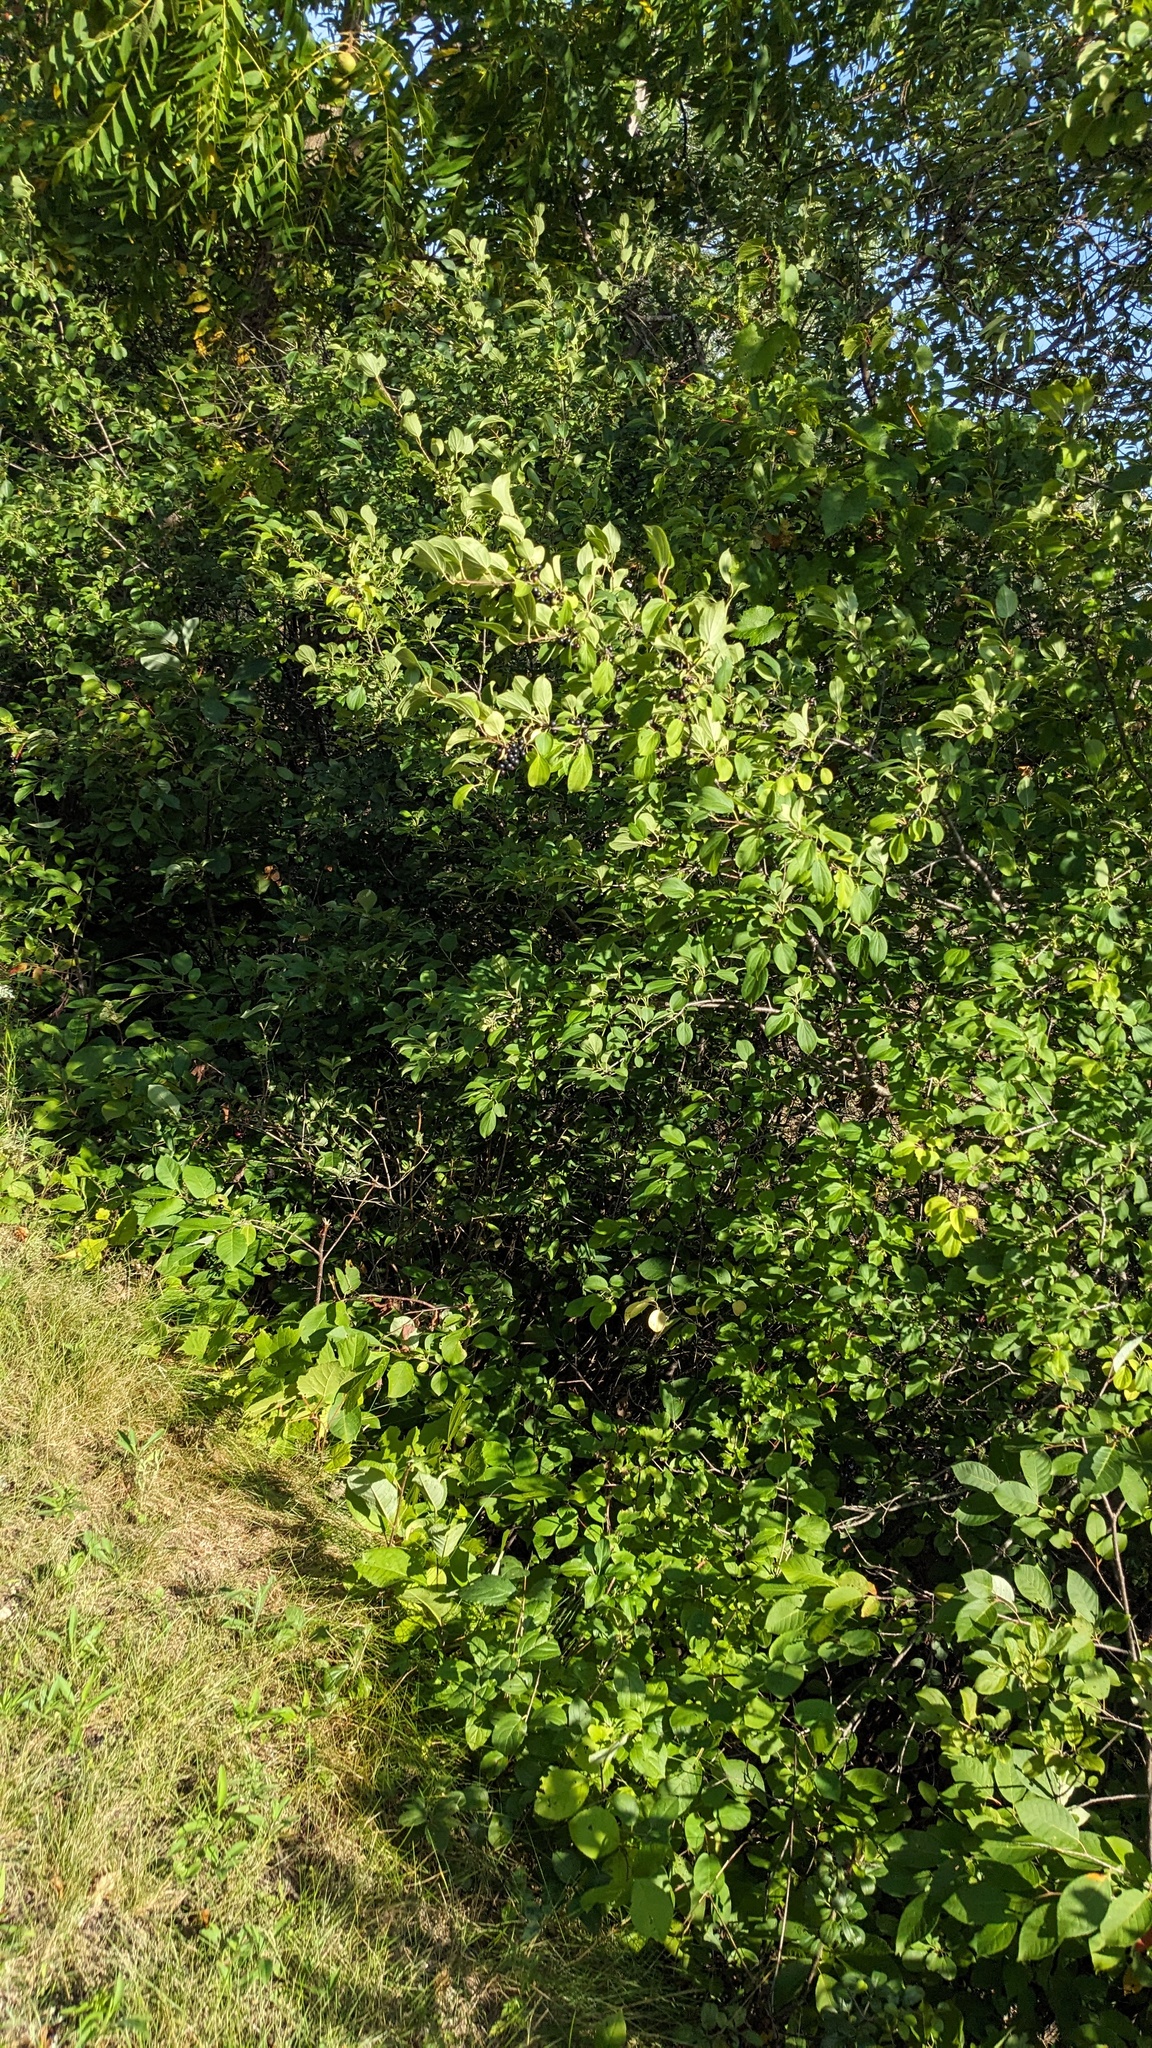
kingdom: Plantae
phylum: Tracheophyta
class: Magnoliopsida
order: Rosales
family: Rhamnaceae
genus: Rhamnus
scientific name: Rhamnus cathartica
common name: Common buckthorn
